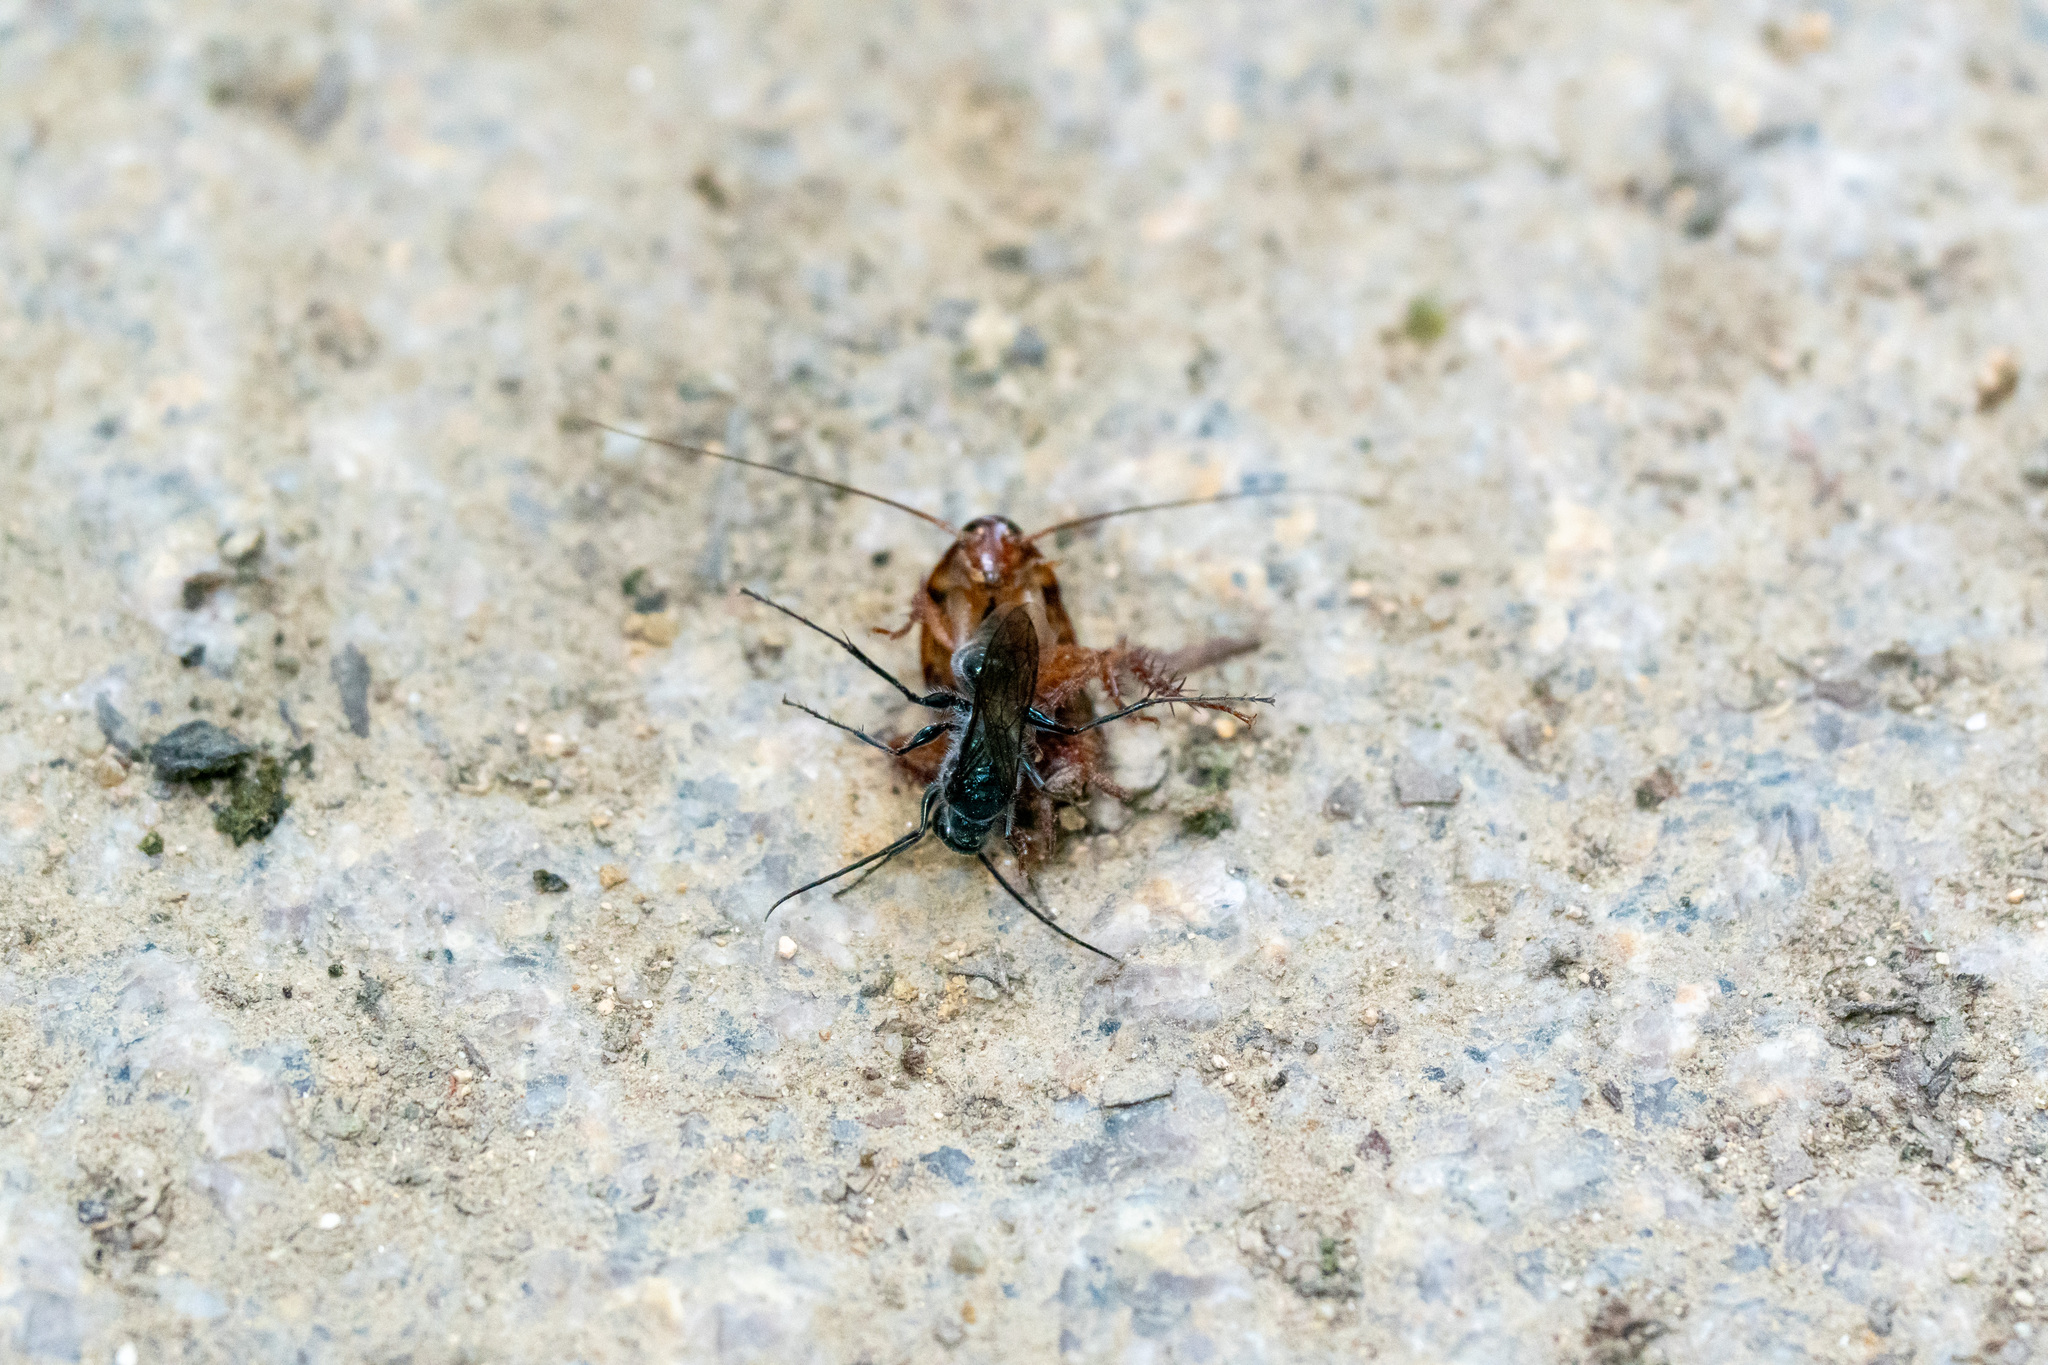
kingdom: Animalia
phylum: Arthropoda
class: Insecta
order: Hymenoptera
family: Ampulicidae
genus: Trirogma
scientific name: Trirogma caerulea
